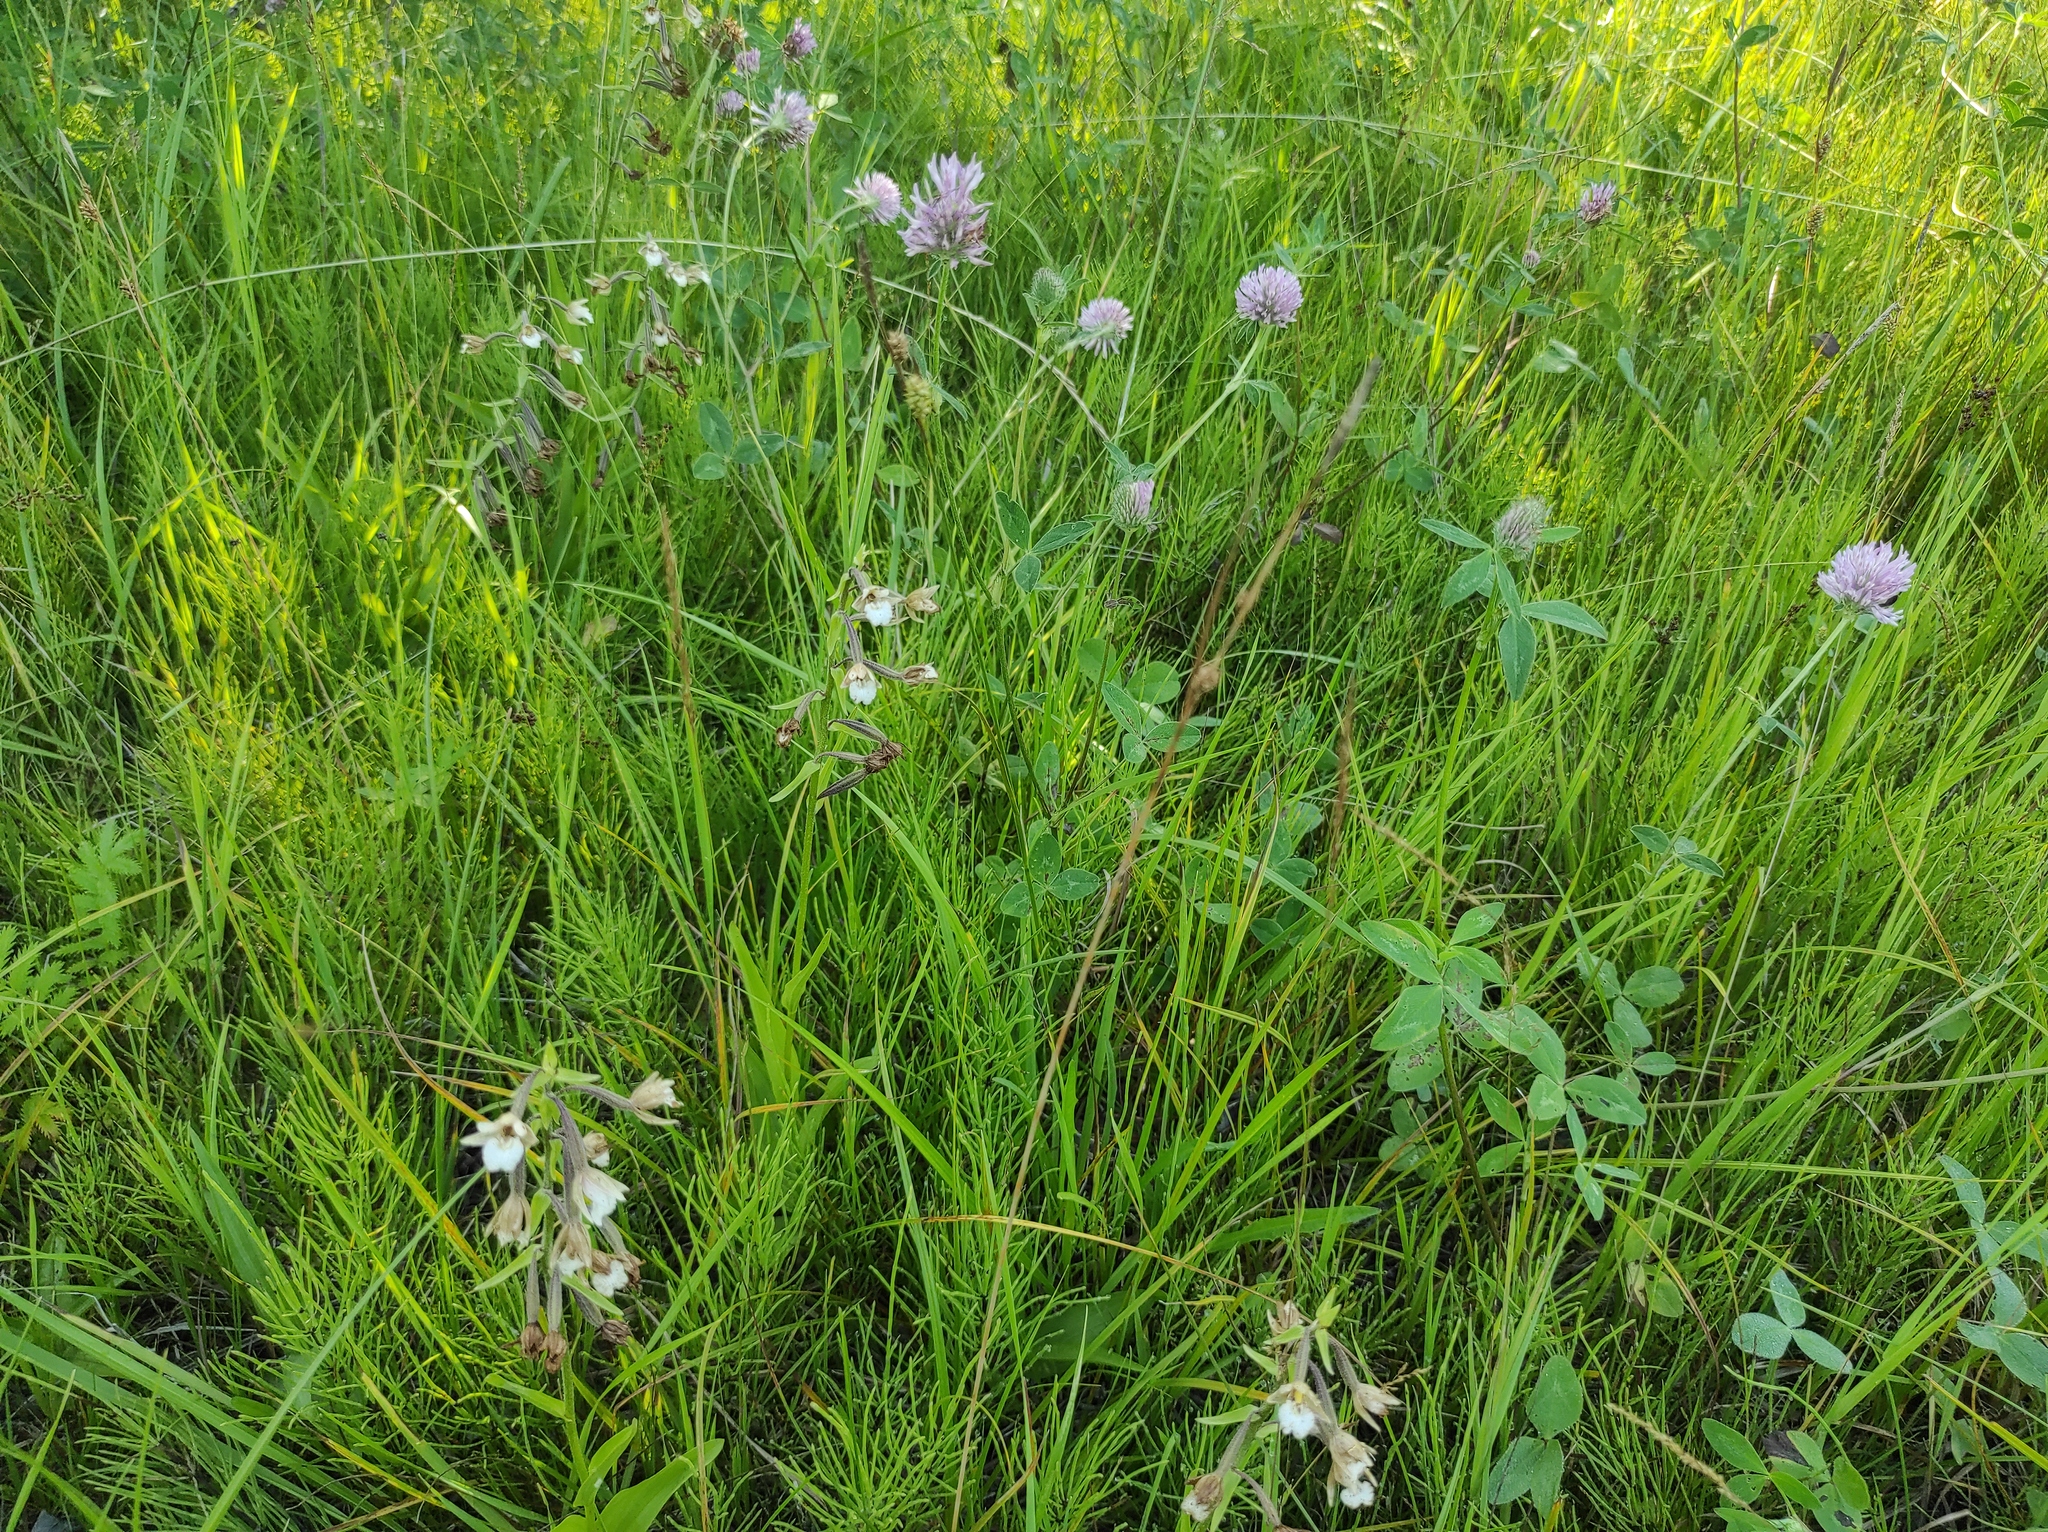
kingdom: Plantae
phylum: Tracheophyta
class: Liliopsida
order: Asparagales
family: Orchidaceae
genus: Epipactis
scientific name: Epipactis palustris
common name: Marsh helleborine
